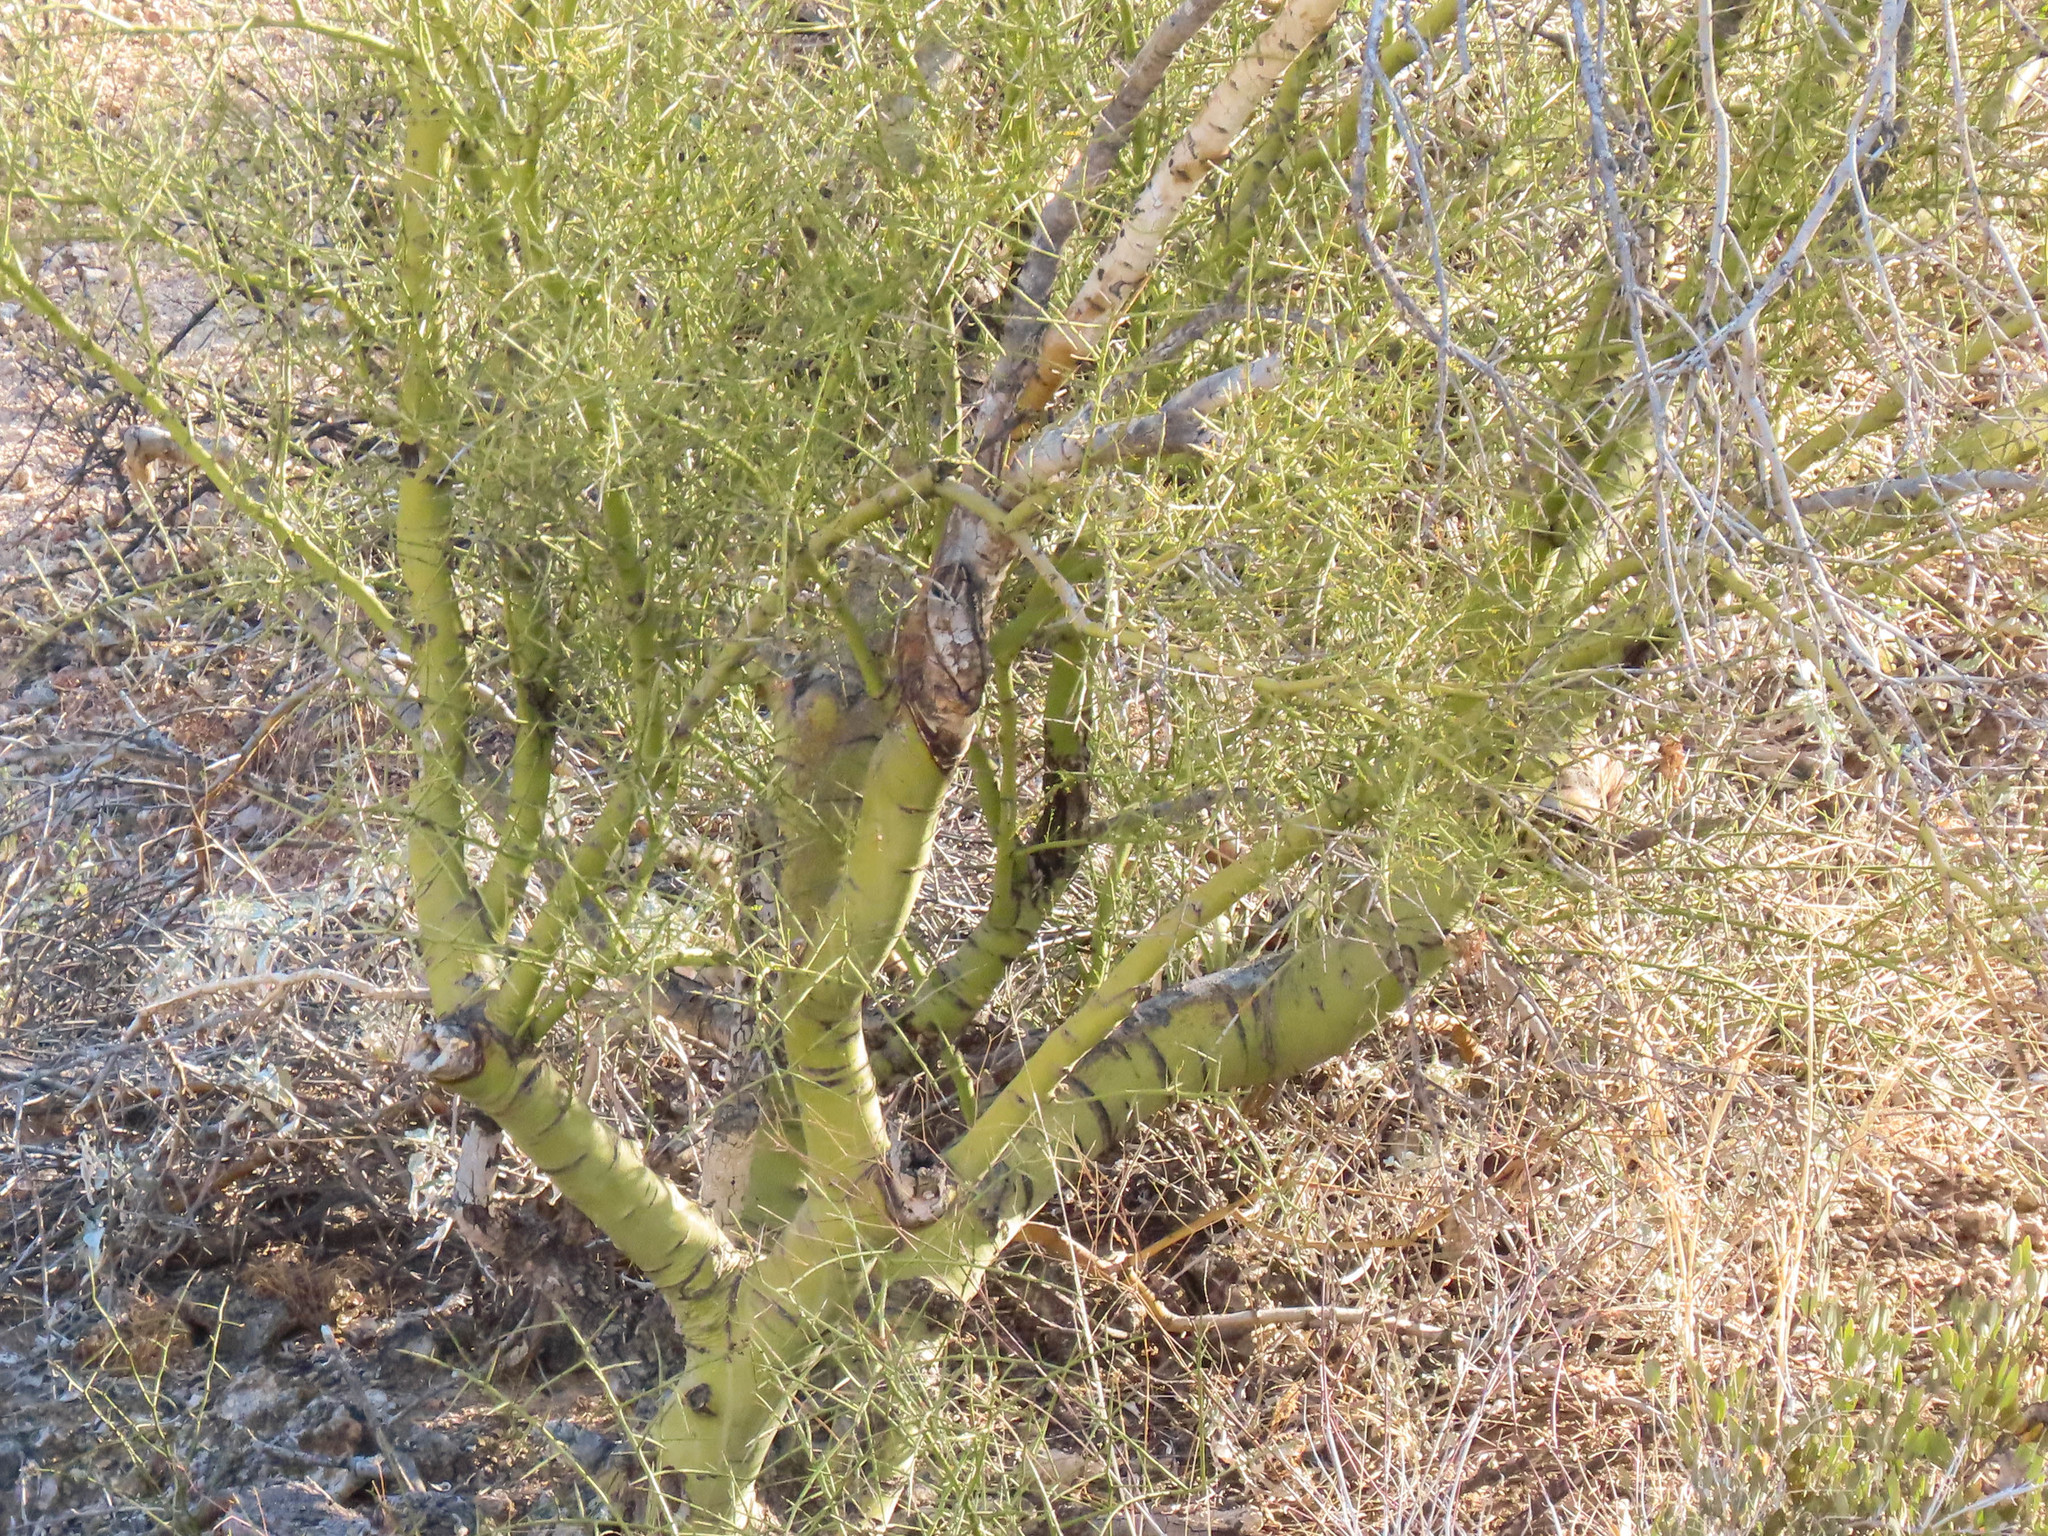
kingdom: Plantae
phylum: Tracheophyta
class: Magnoliopsida
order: Fabales
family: Fabaceae
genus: Parkinsonia
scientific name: Parkinsonia microphylla
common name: Yellow paloverde
